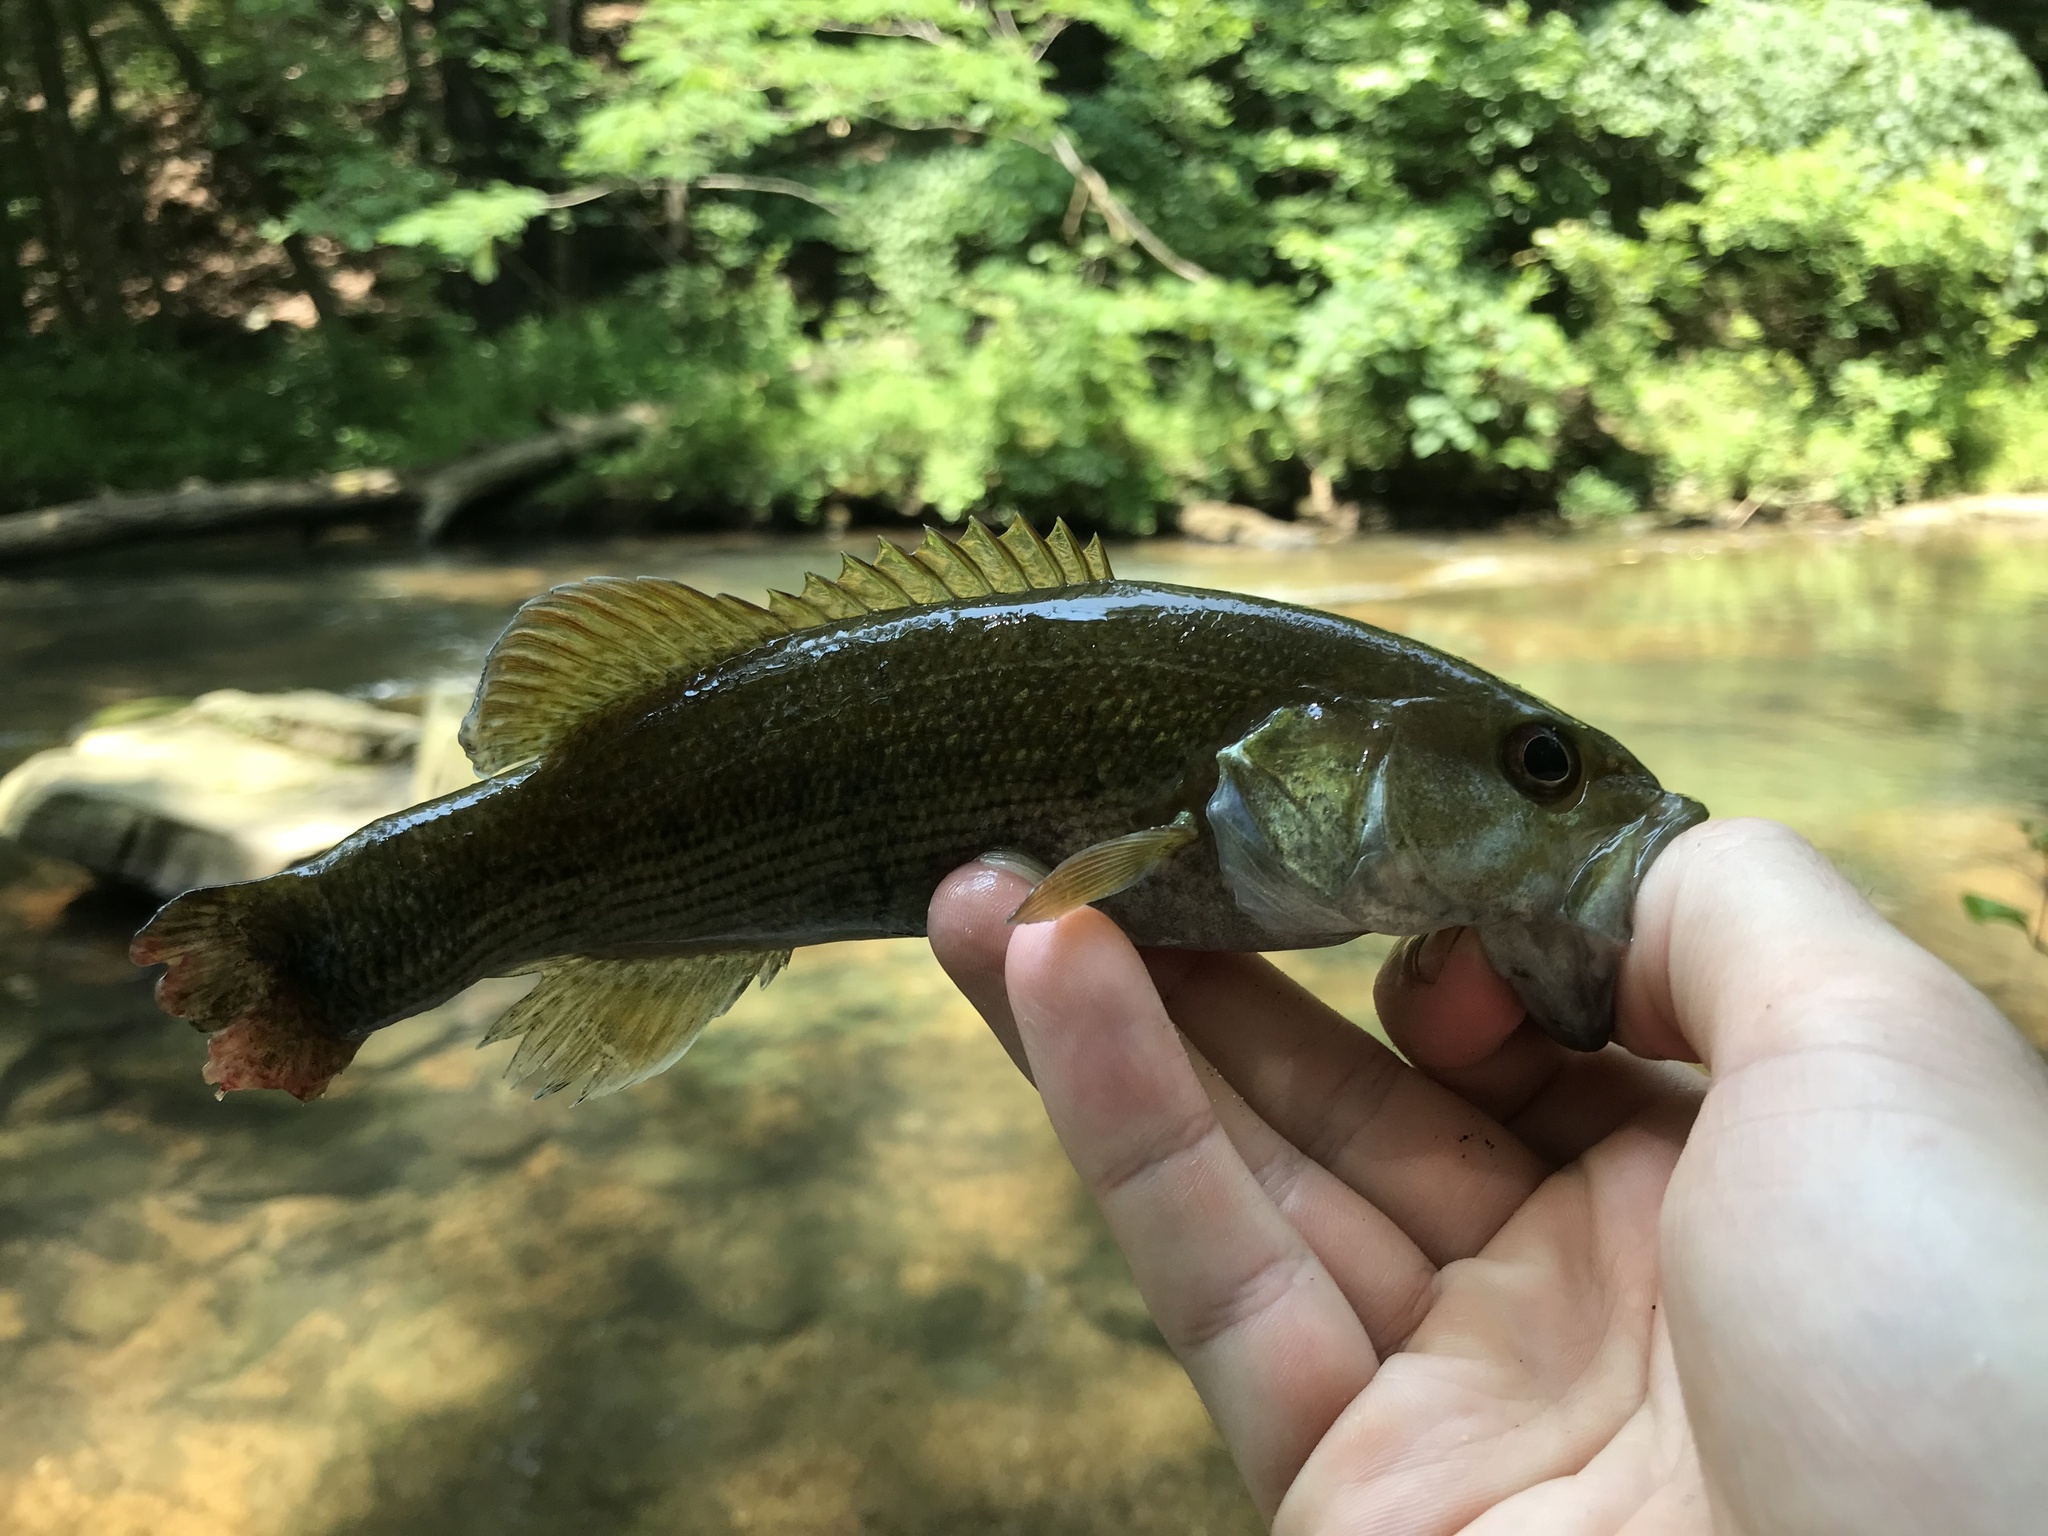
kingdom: Animalia
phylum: Chordata
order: Perciformes
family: Centrarchidae
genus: Micropterus
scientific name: Micropterus warriorensis
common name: Warrior bass
